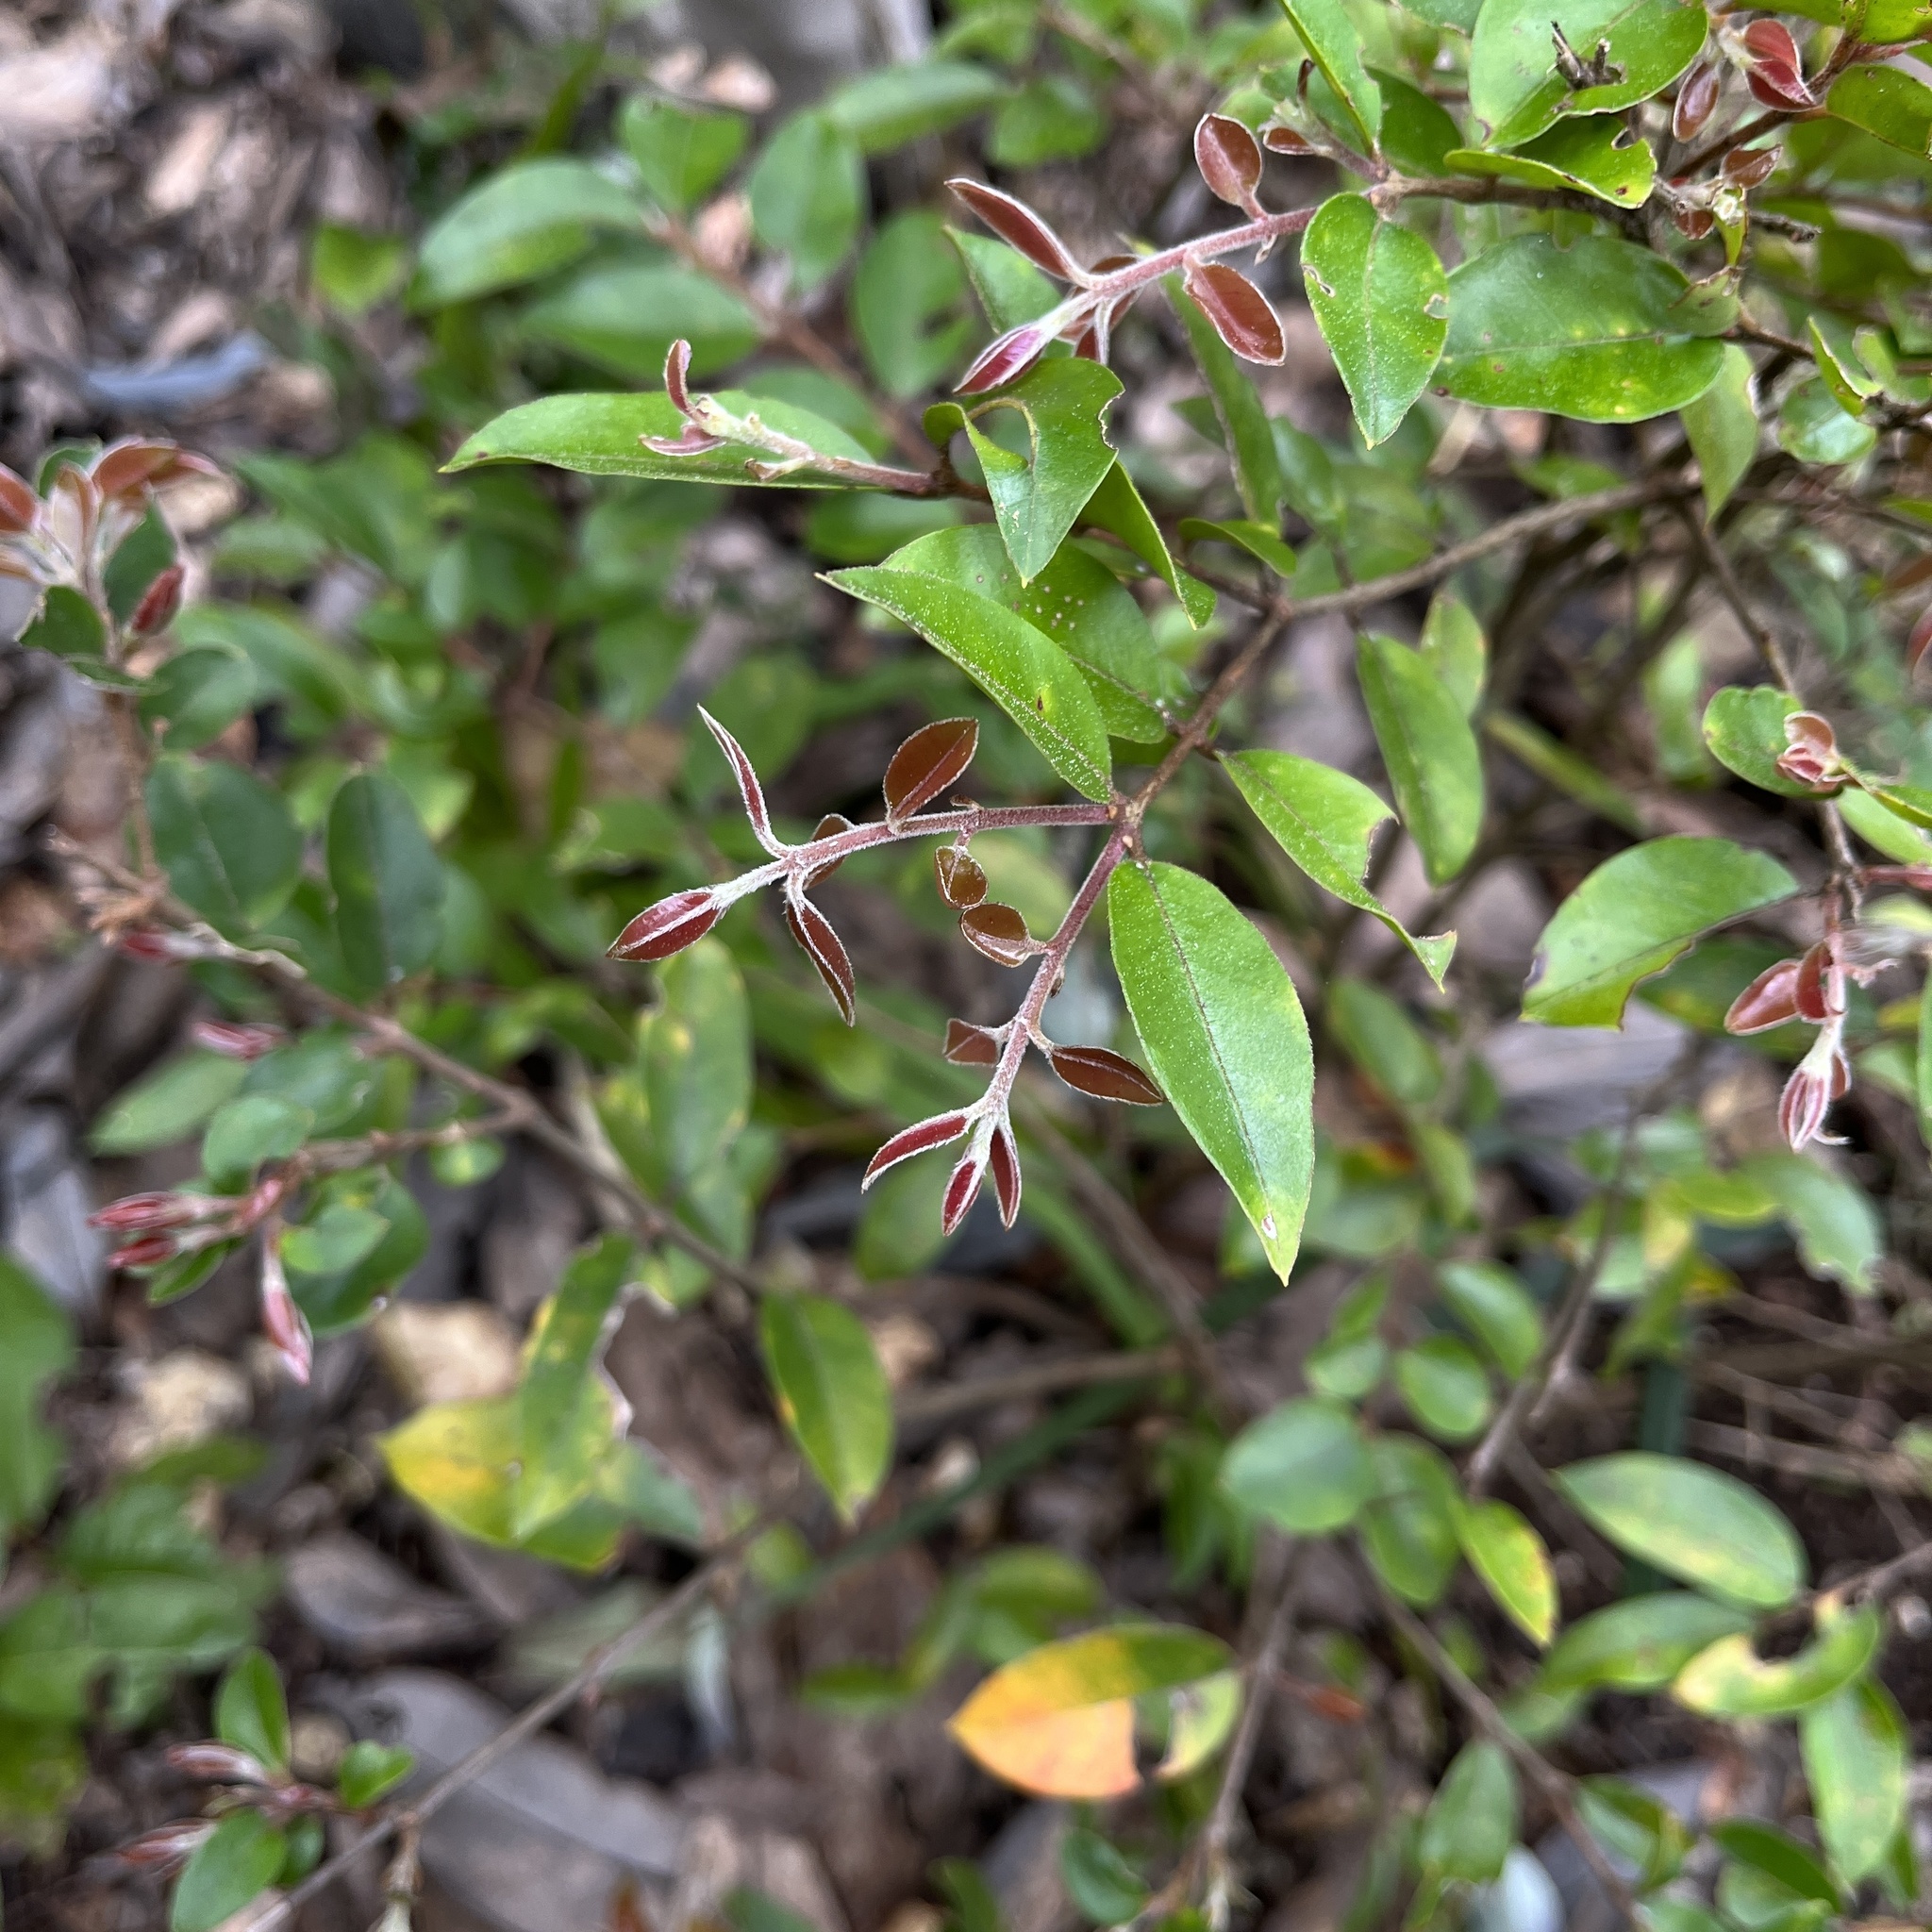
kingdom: Plantae
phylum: Tracheophyta
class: Magnoliopsida
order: Myrtales
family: Myrtaceae
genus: Amomyrtus
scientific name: Amomyrtus luma
